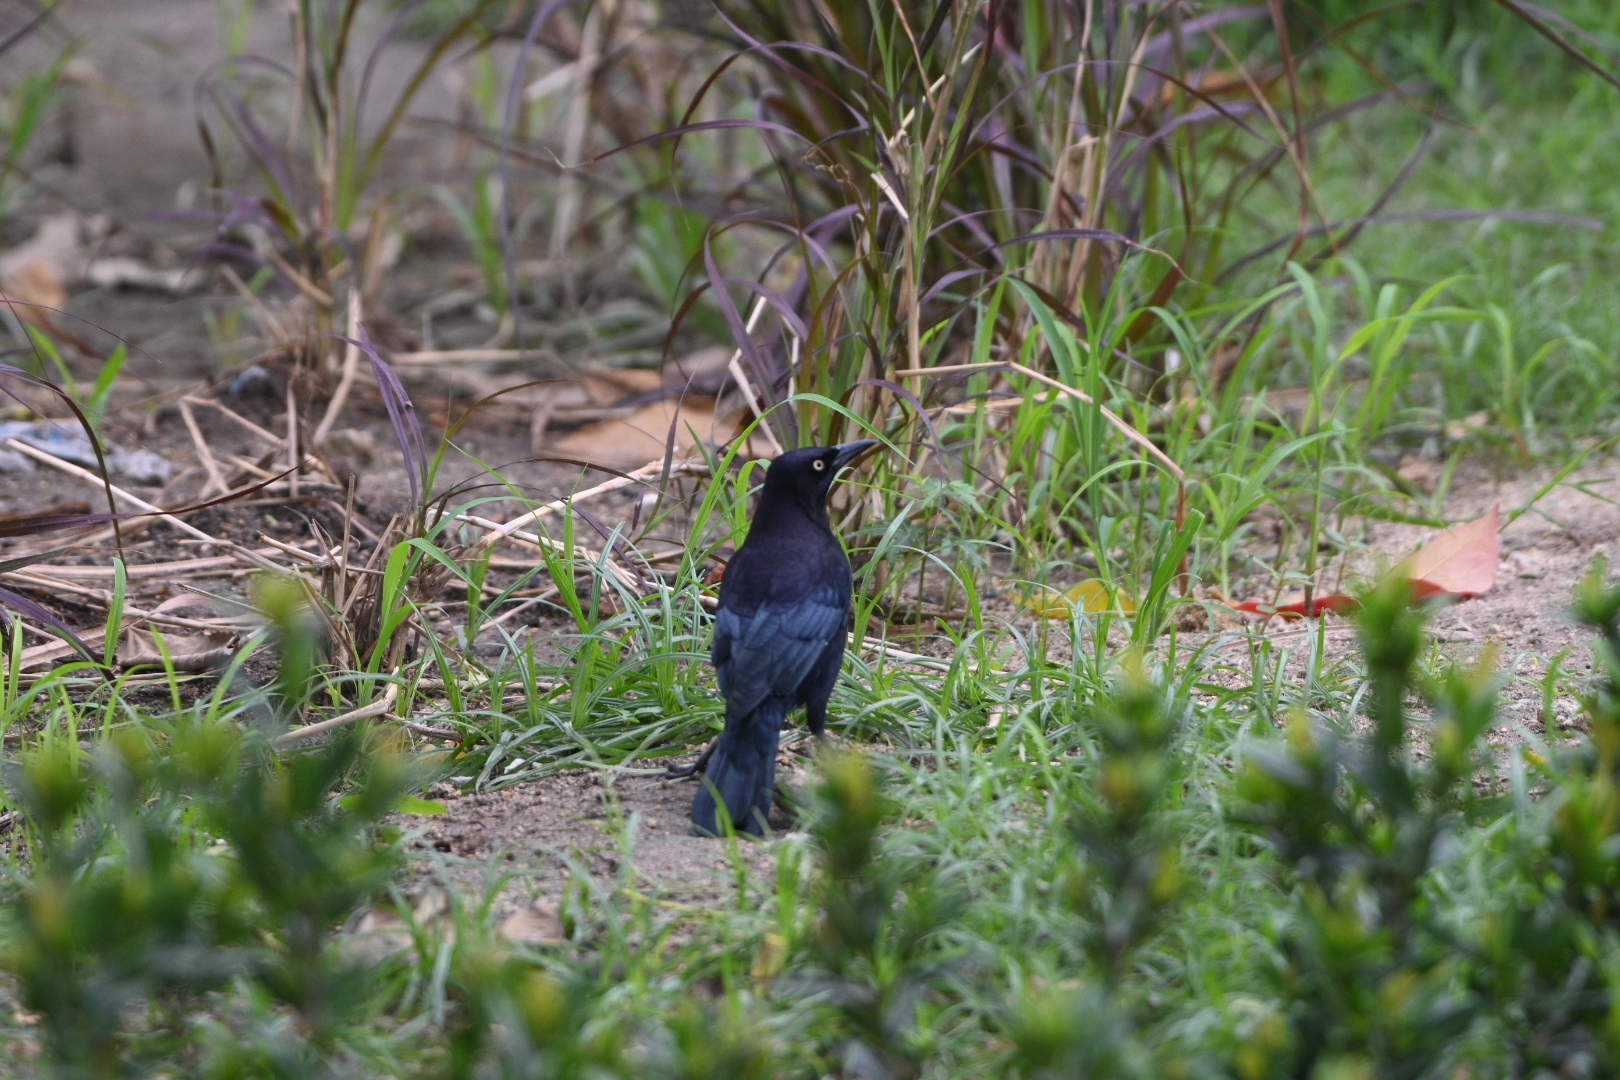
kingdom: Animalia
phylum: Chordata
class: Aves
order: Passeriformes
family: Icteridae
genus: Quiscalus
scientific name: Quiscalus lugubris
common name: Carib grackle
